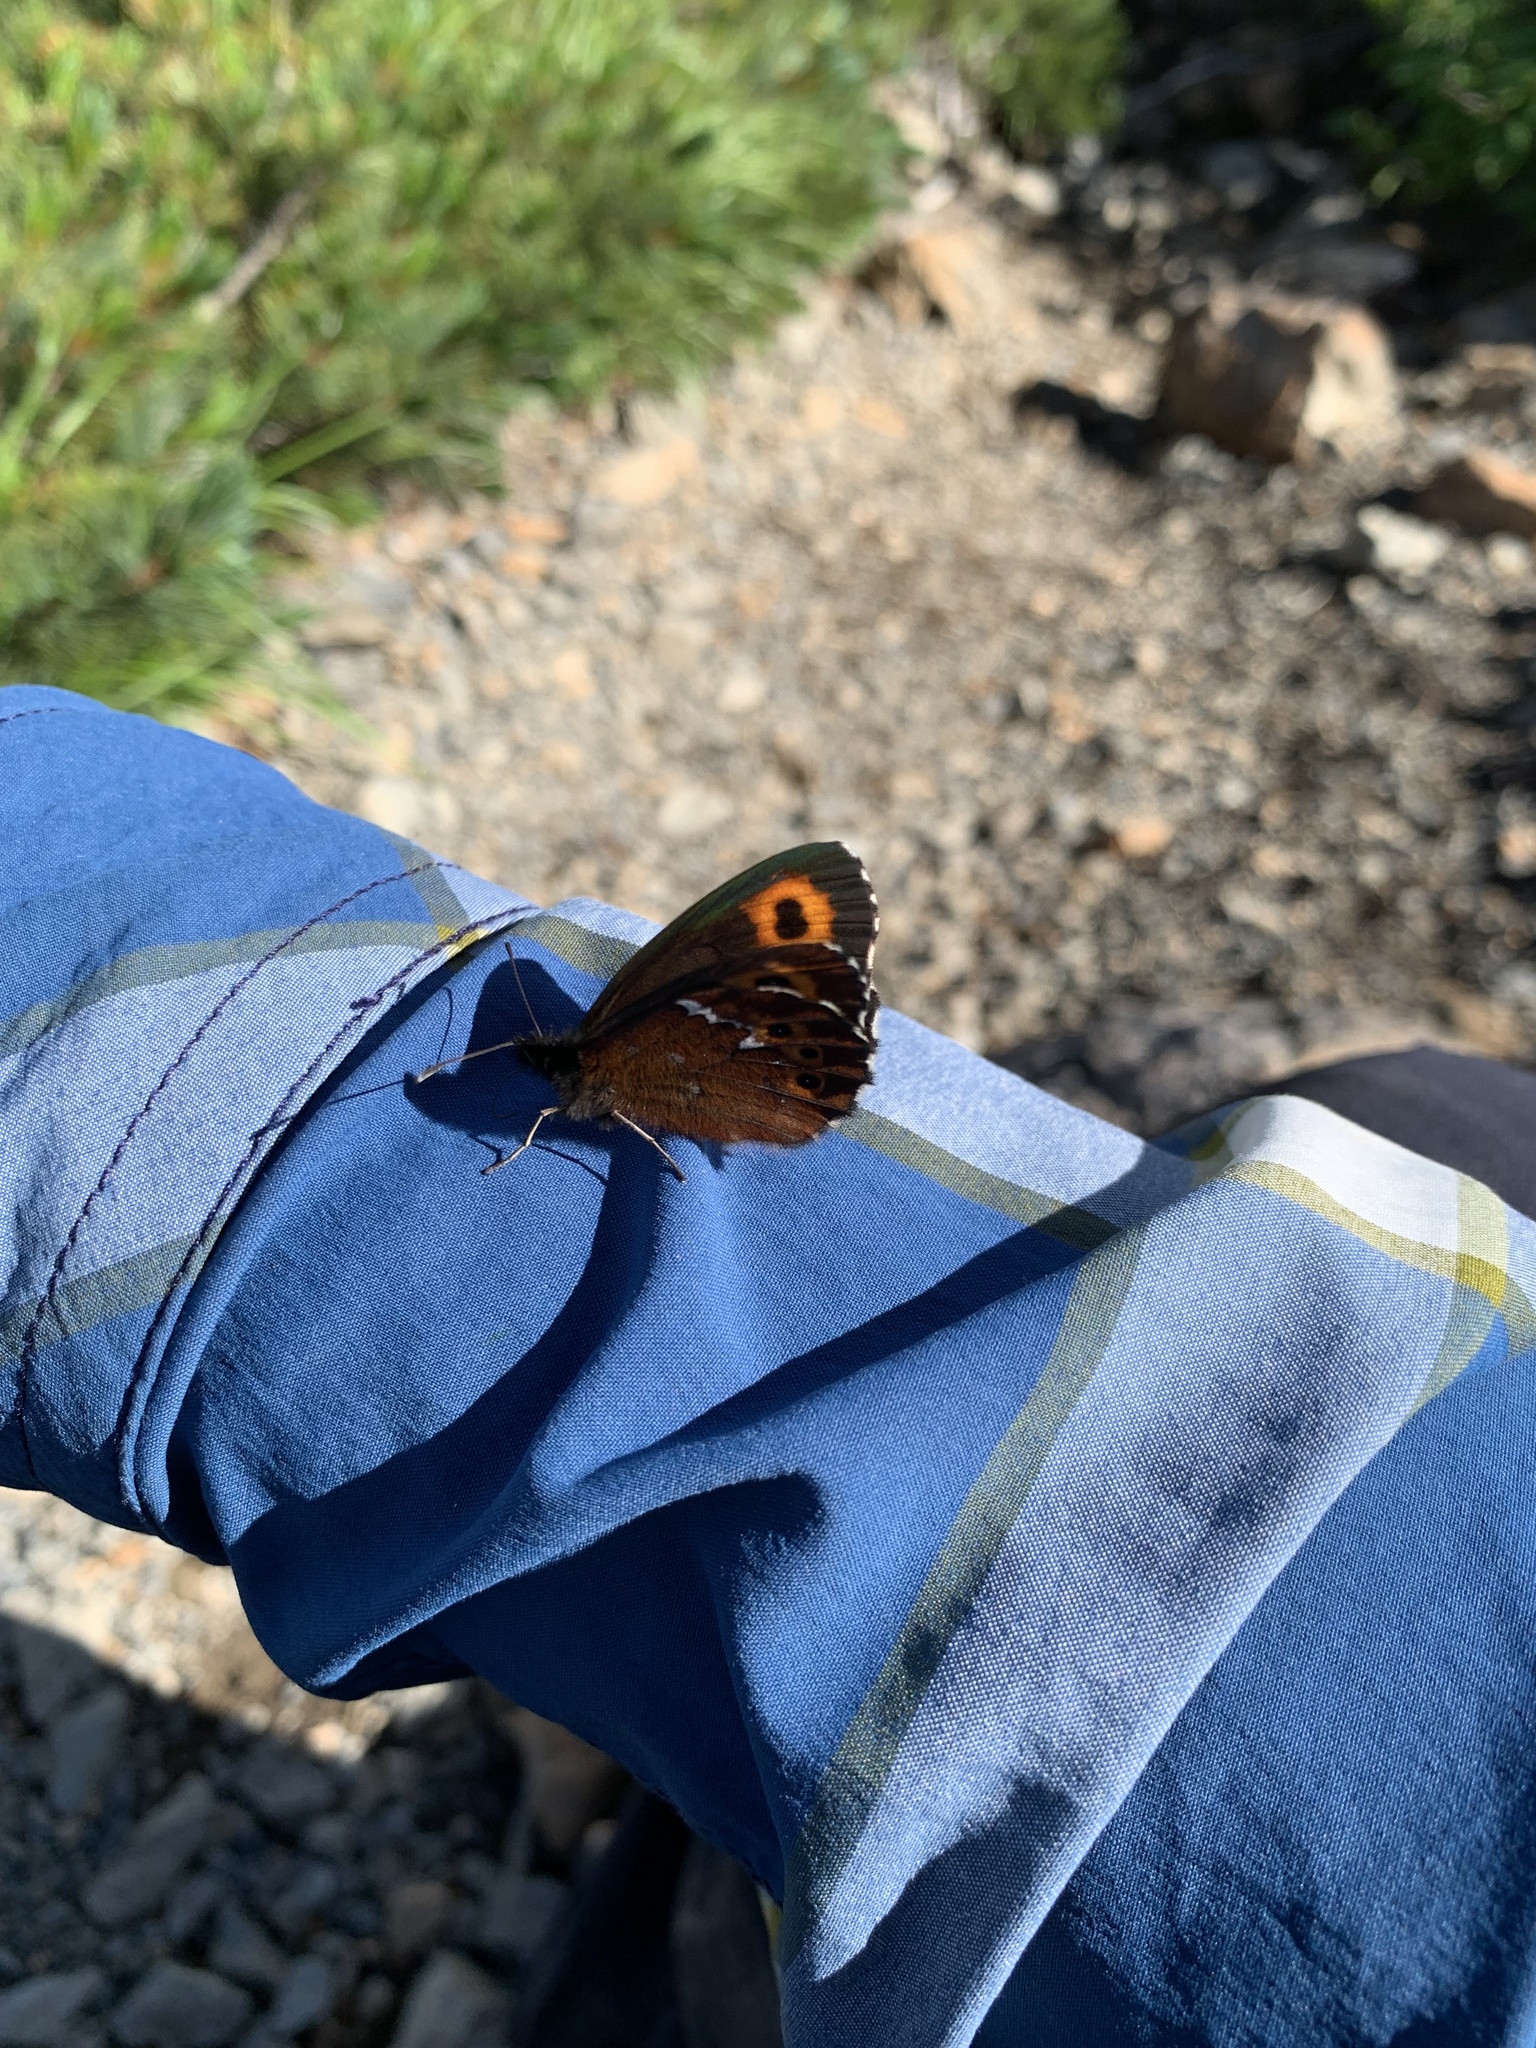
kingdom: Animalia
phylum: Arthropoda
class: Insecta
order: Lepidoptera
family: Nymphalidae
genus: Erebia
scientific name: Erebia ligea
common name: Arran brown
